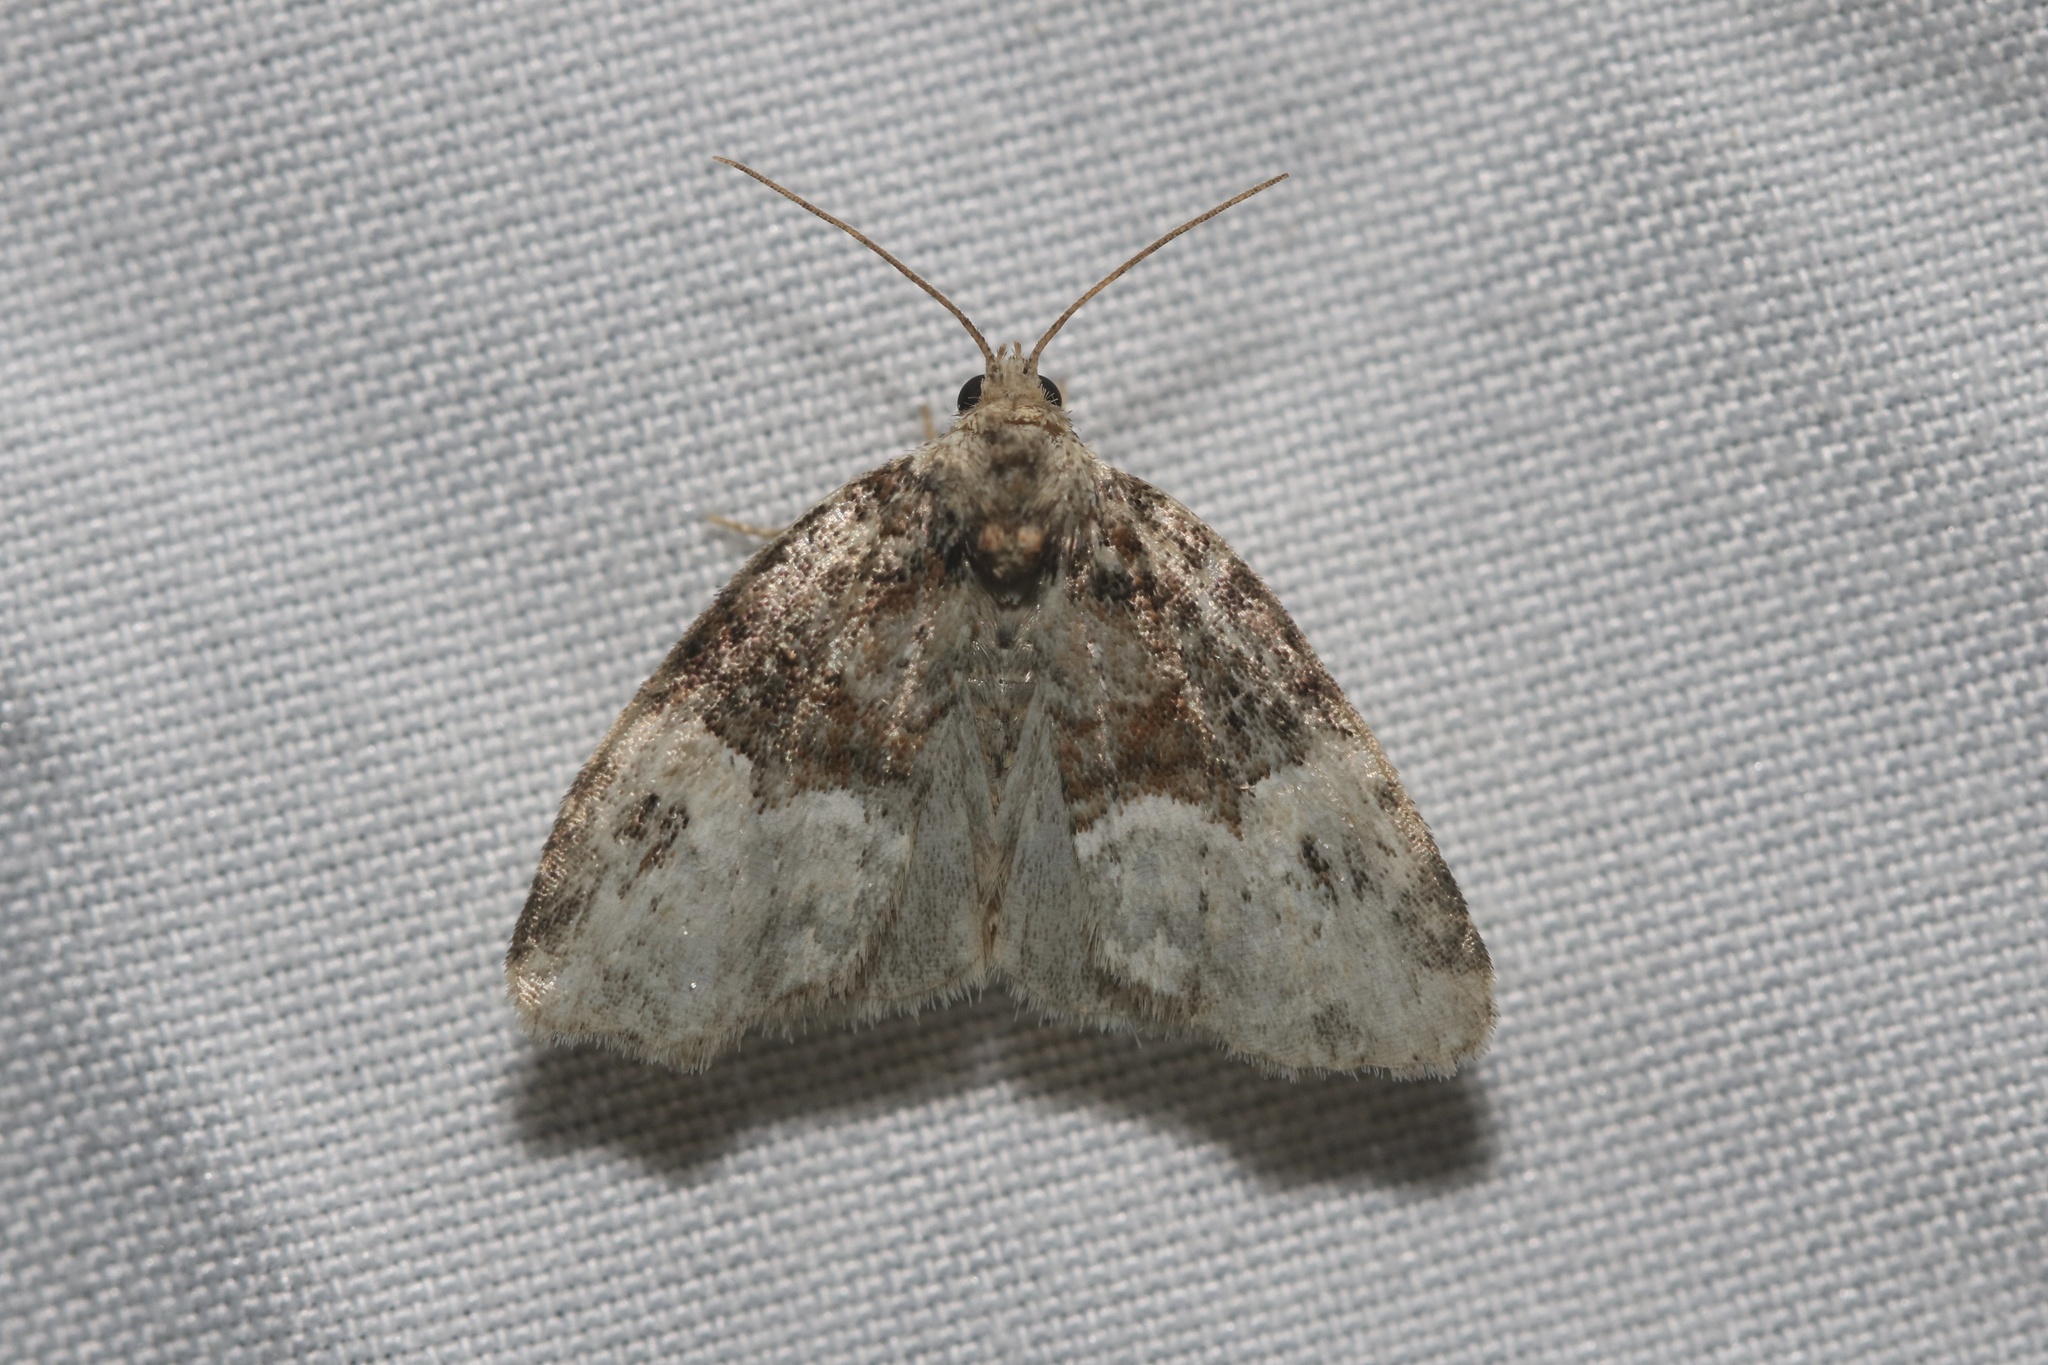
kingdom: Animalia
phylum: Arthropoda
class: Insecta
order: Lepidoptera
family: Noctuidae
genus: Neoligia
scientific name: Neoligia crytora
